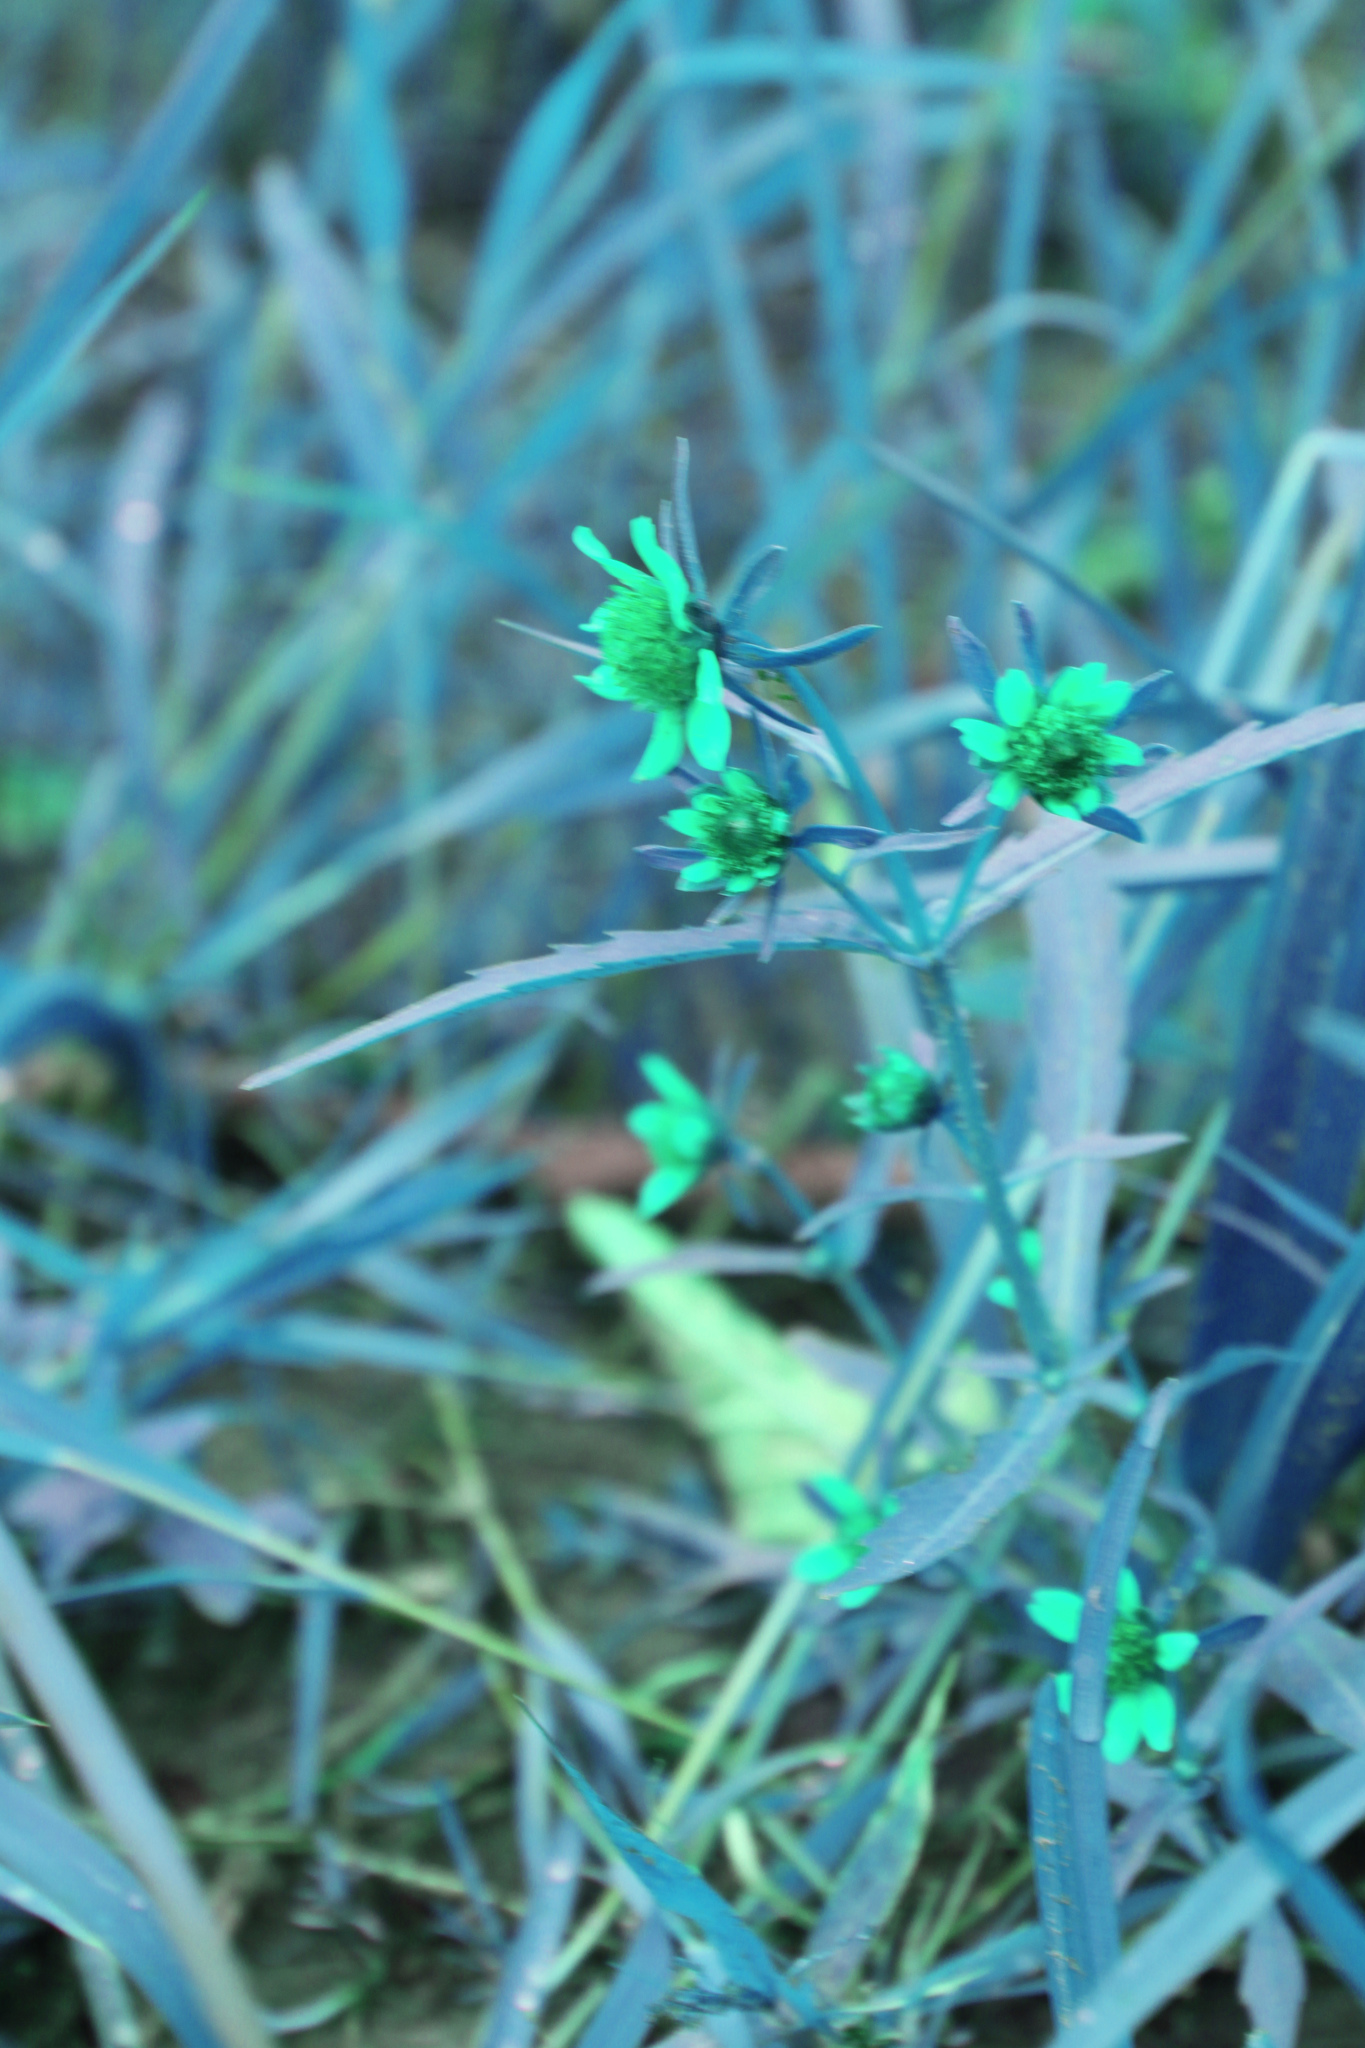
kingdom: Plantae
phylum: Tracheophyta
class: Magnoliopsida
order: Asterales
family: Asteraceae
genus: Bidens
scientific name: Bidens cernua
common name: Nodding bur-marigold
